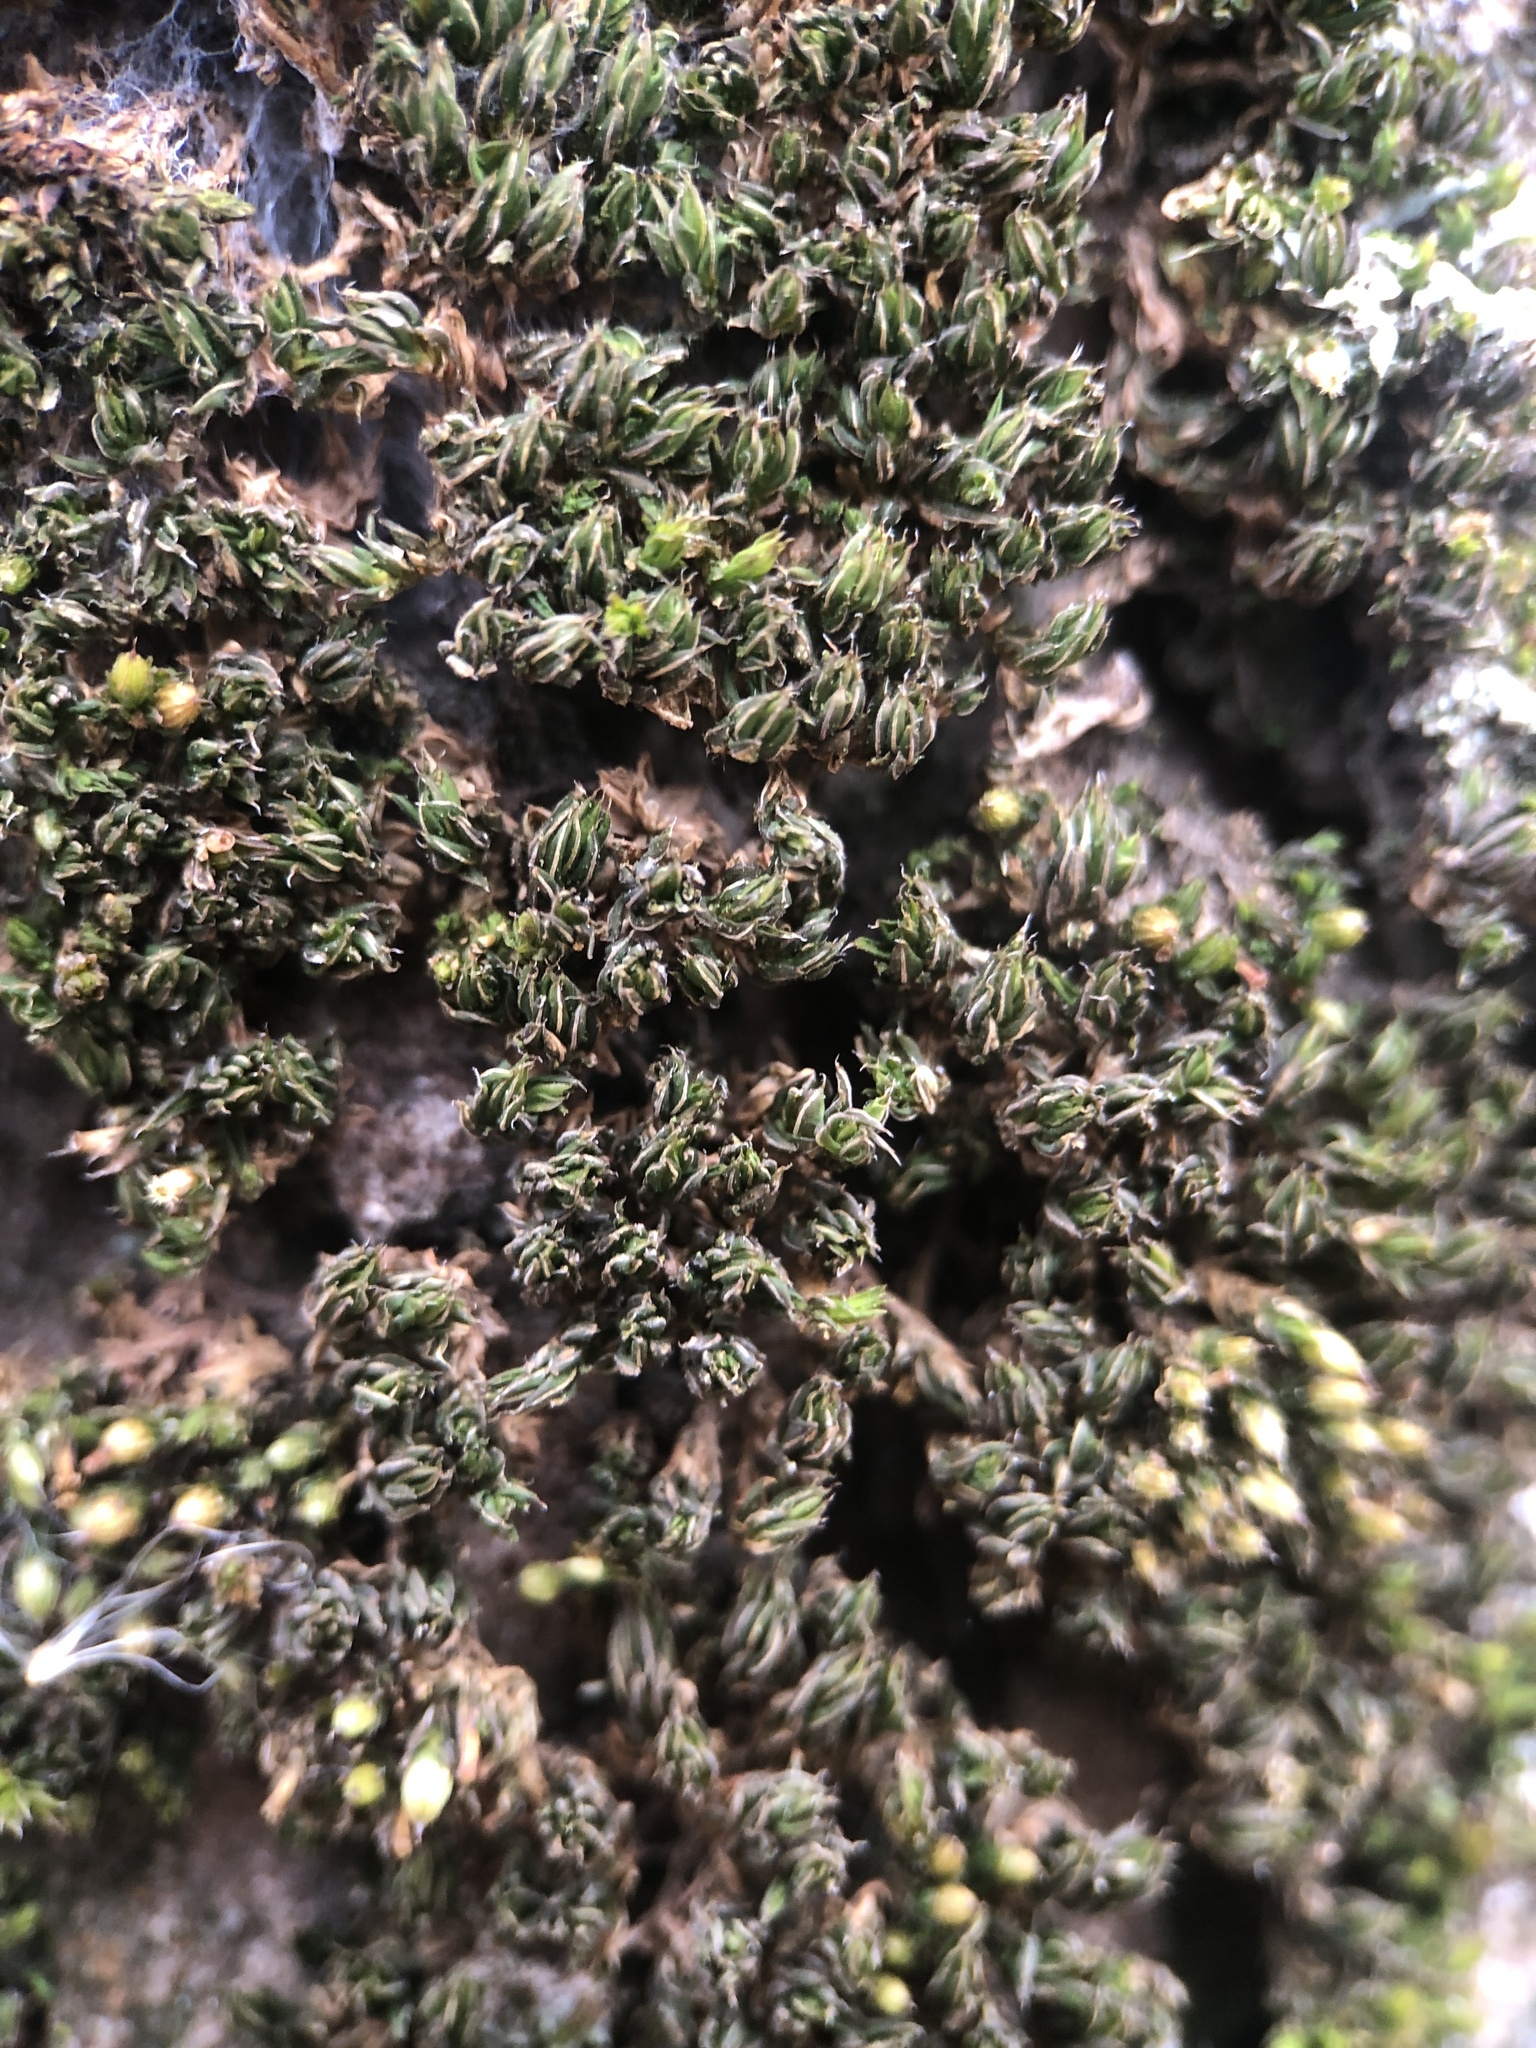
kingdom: Plantae
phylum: Bryophyta
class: Bryopsida
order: Pottiales
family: Pottiaceae
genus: Syntrichia
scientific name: Syntrichia papillosa
